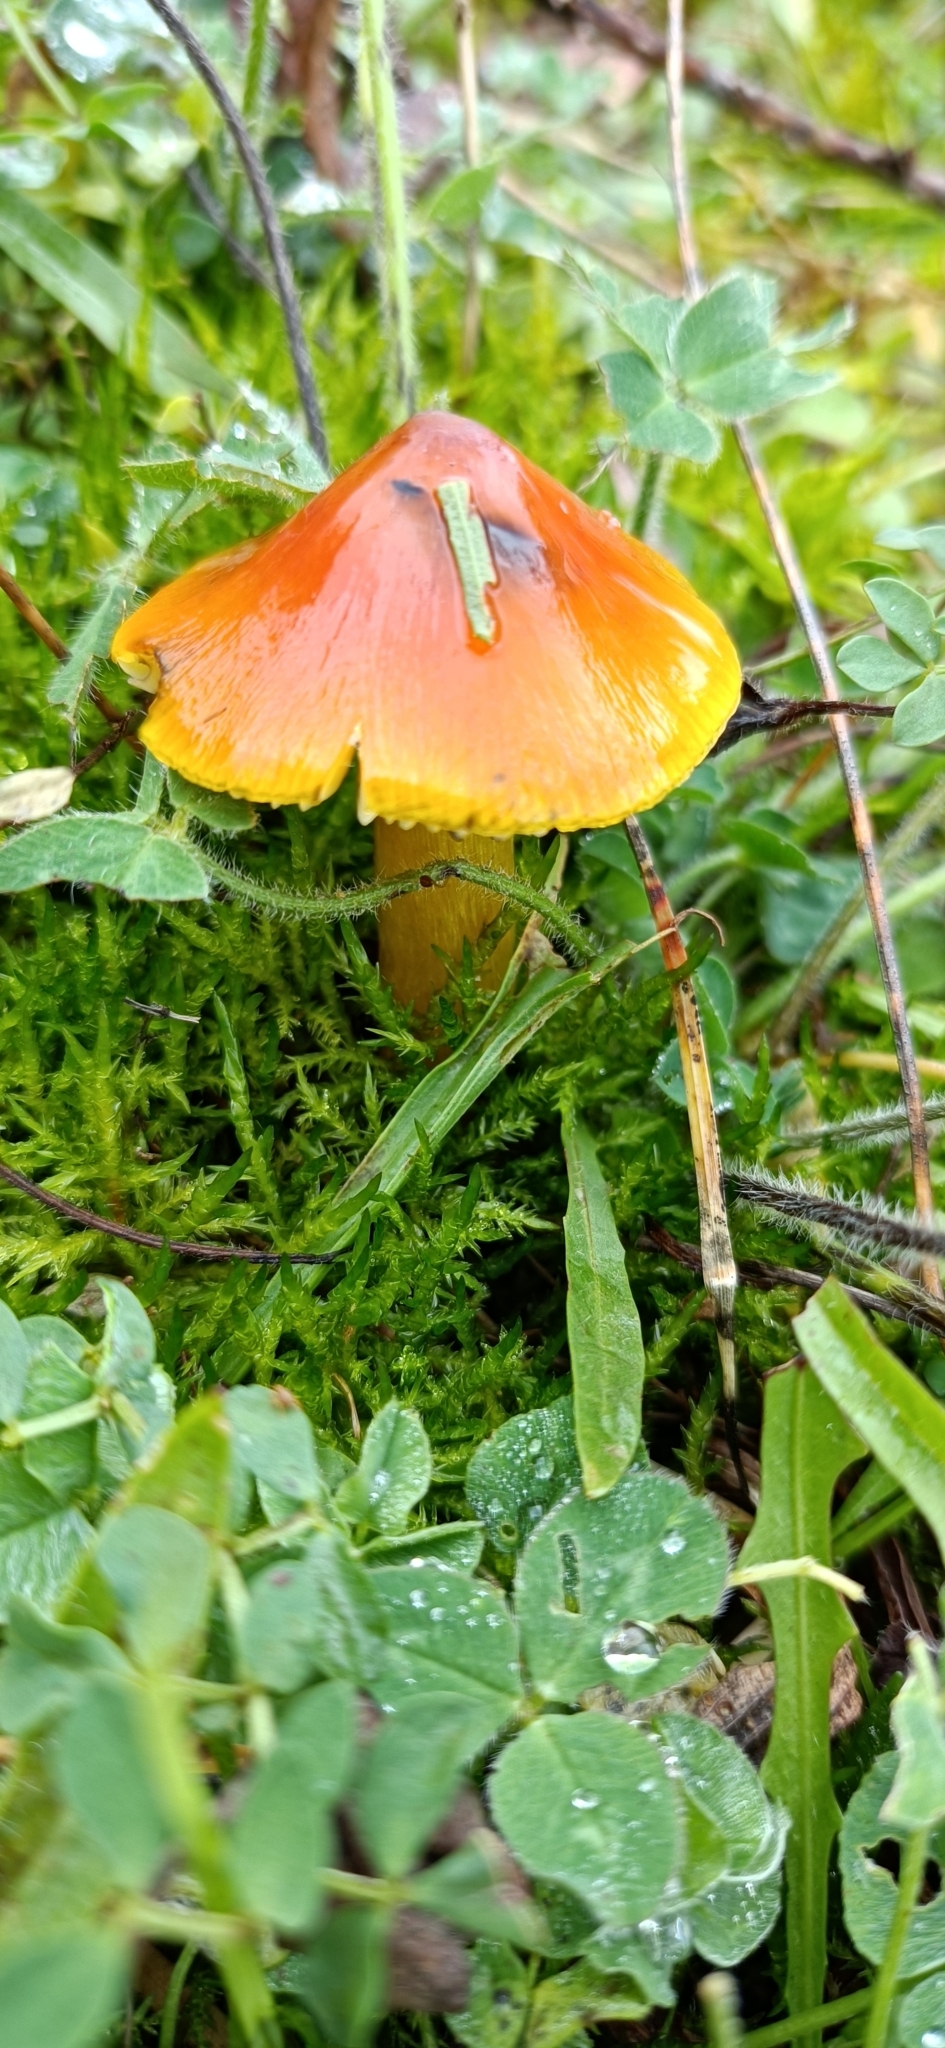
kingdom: Fungi
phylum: Basidiomycota
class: Agaricomycetes
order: Agaricales
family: Hygrophoraceae
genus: Hygrocybe
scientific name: Hygrocybe conica
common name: Blackening wax-cap
